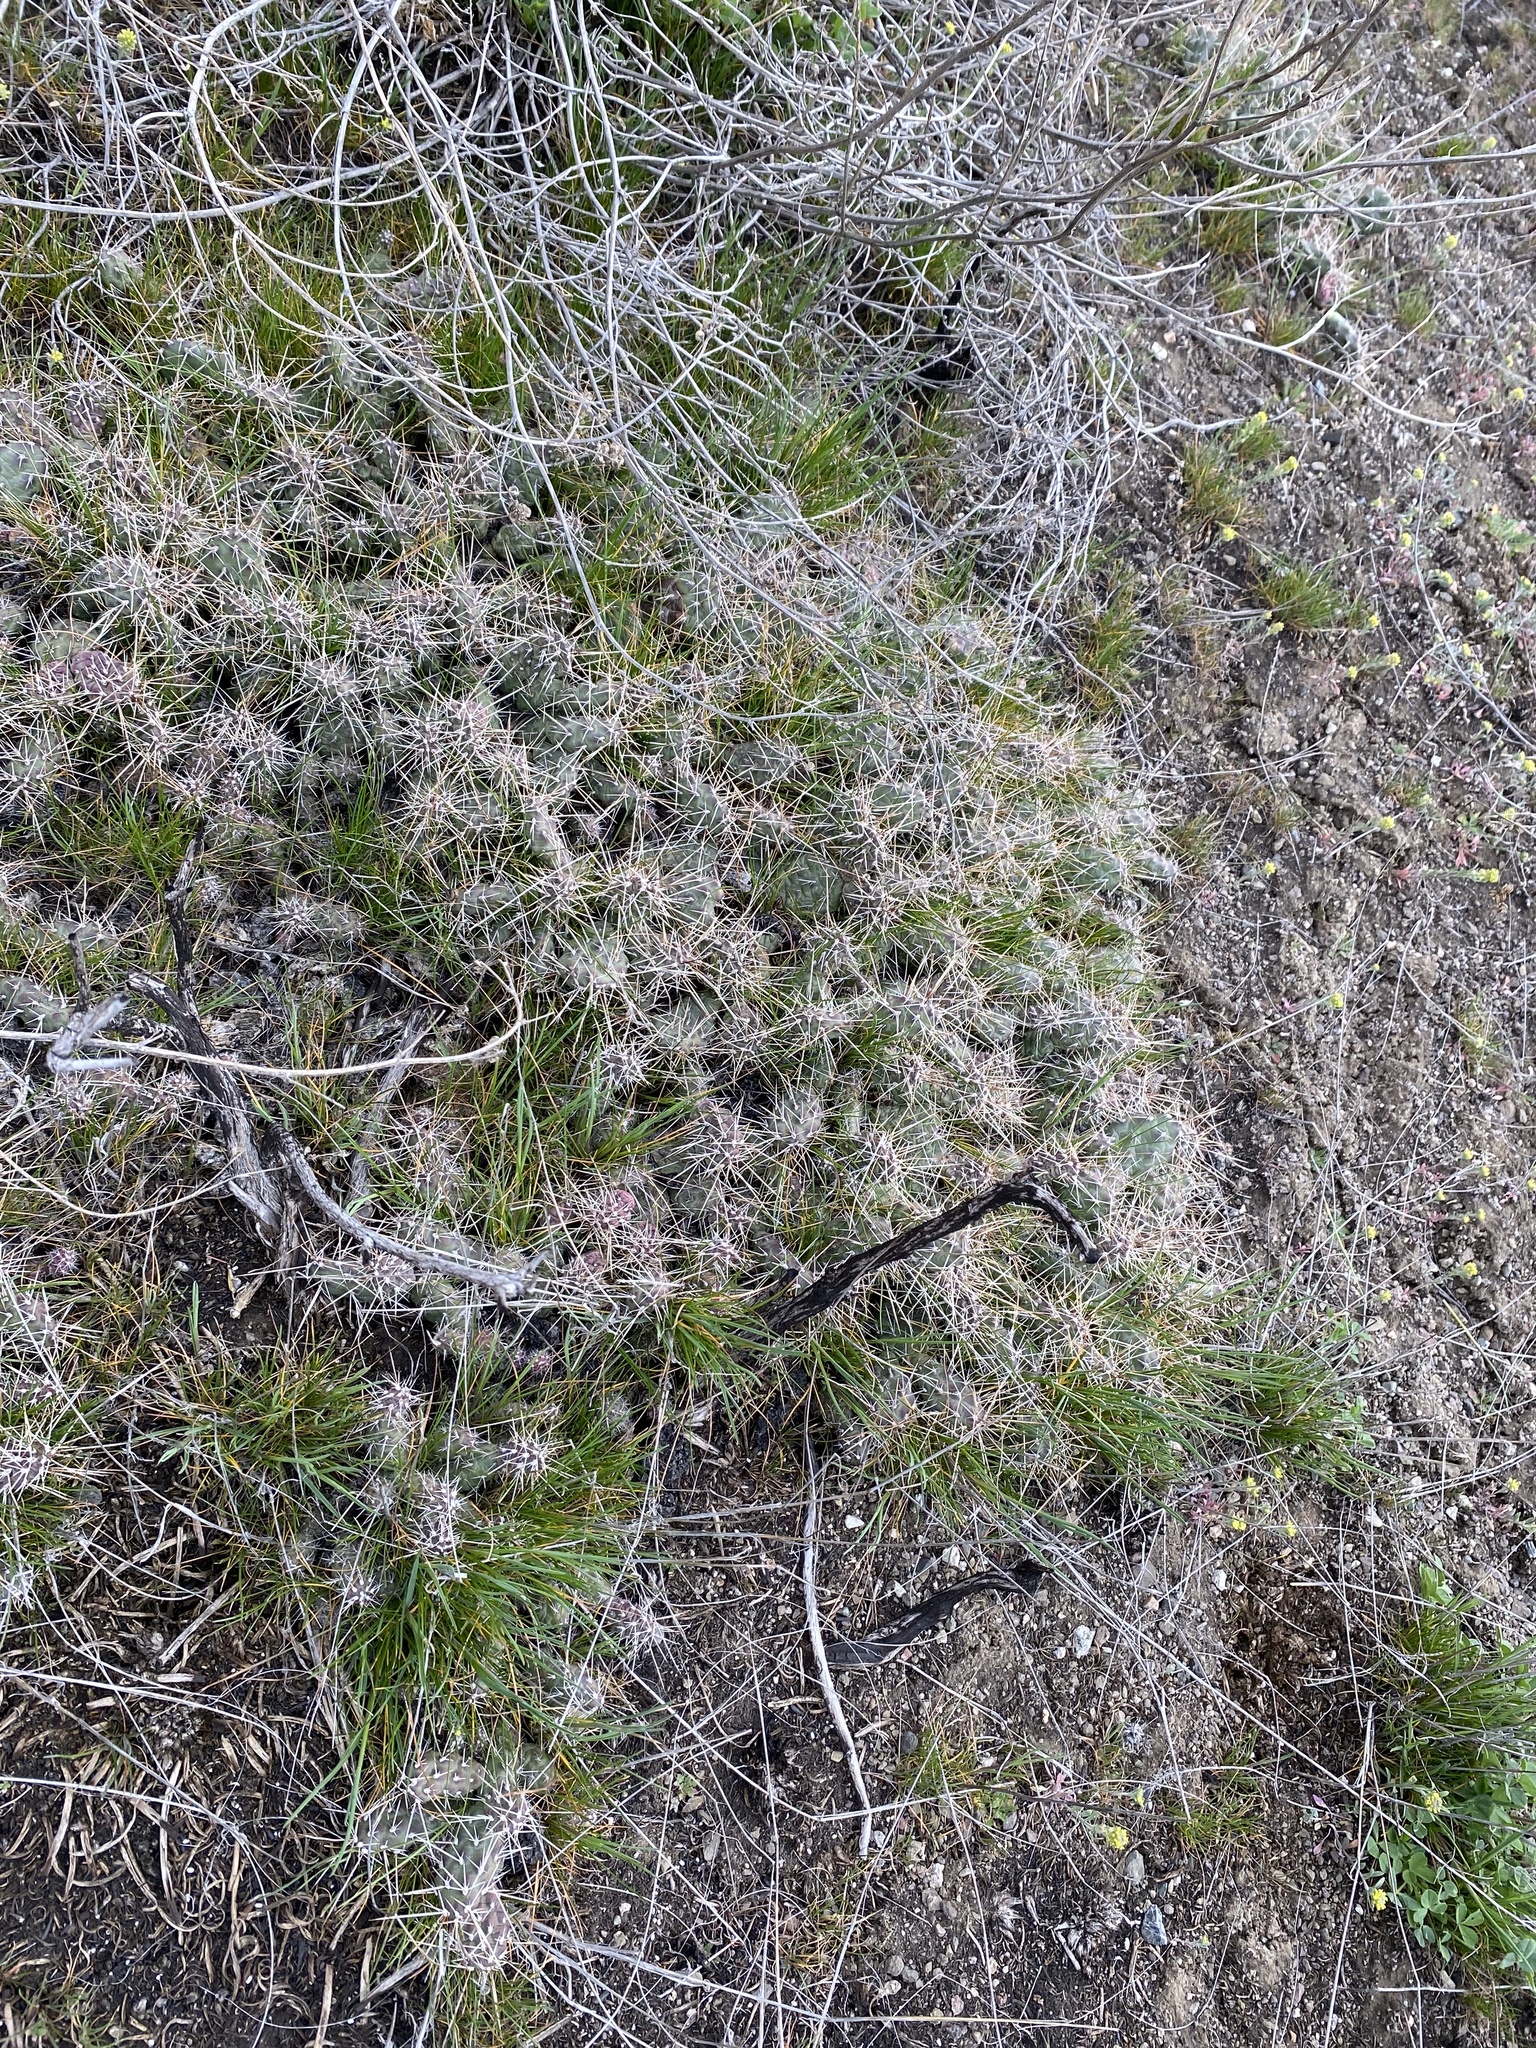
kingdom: Plantae
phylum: Tracheophyta
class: Magnoliopsida
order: Caryophyllales
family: Cactaceae
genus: Opuntia
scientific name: Opuntia fragilis
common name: Brittle cactus
